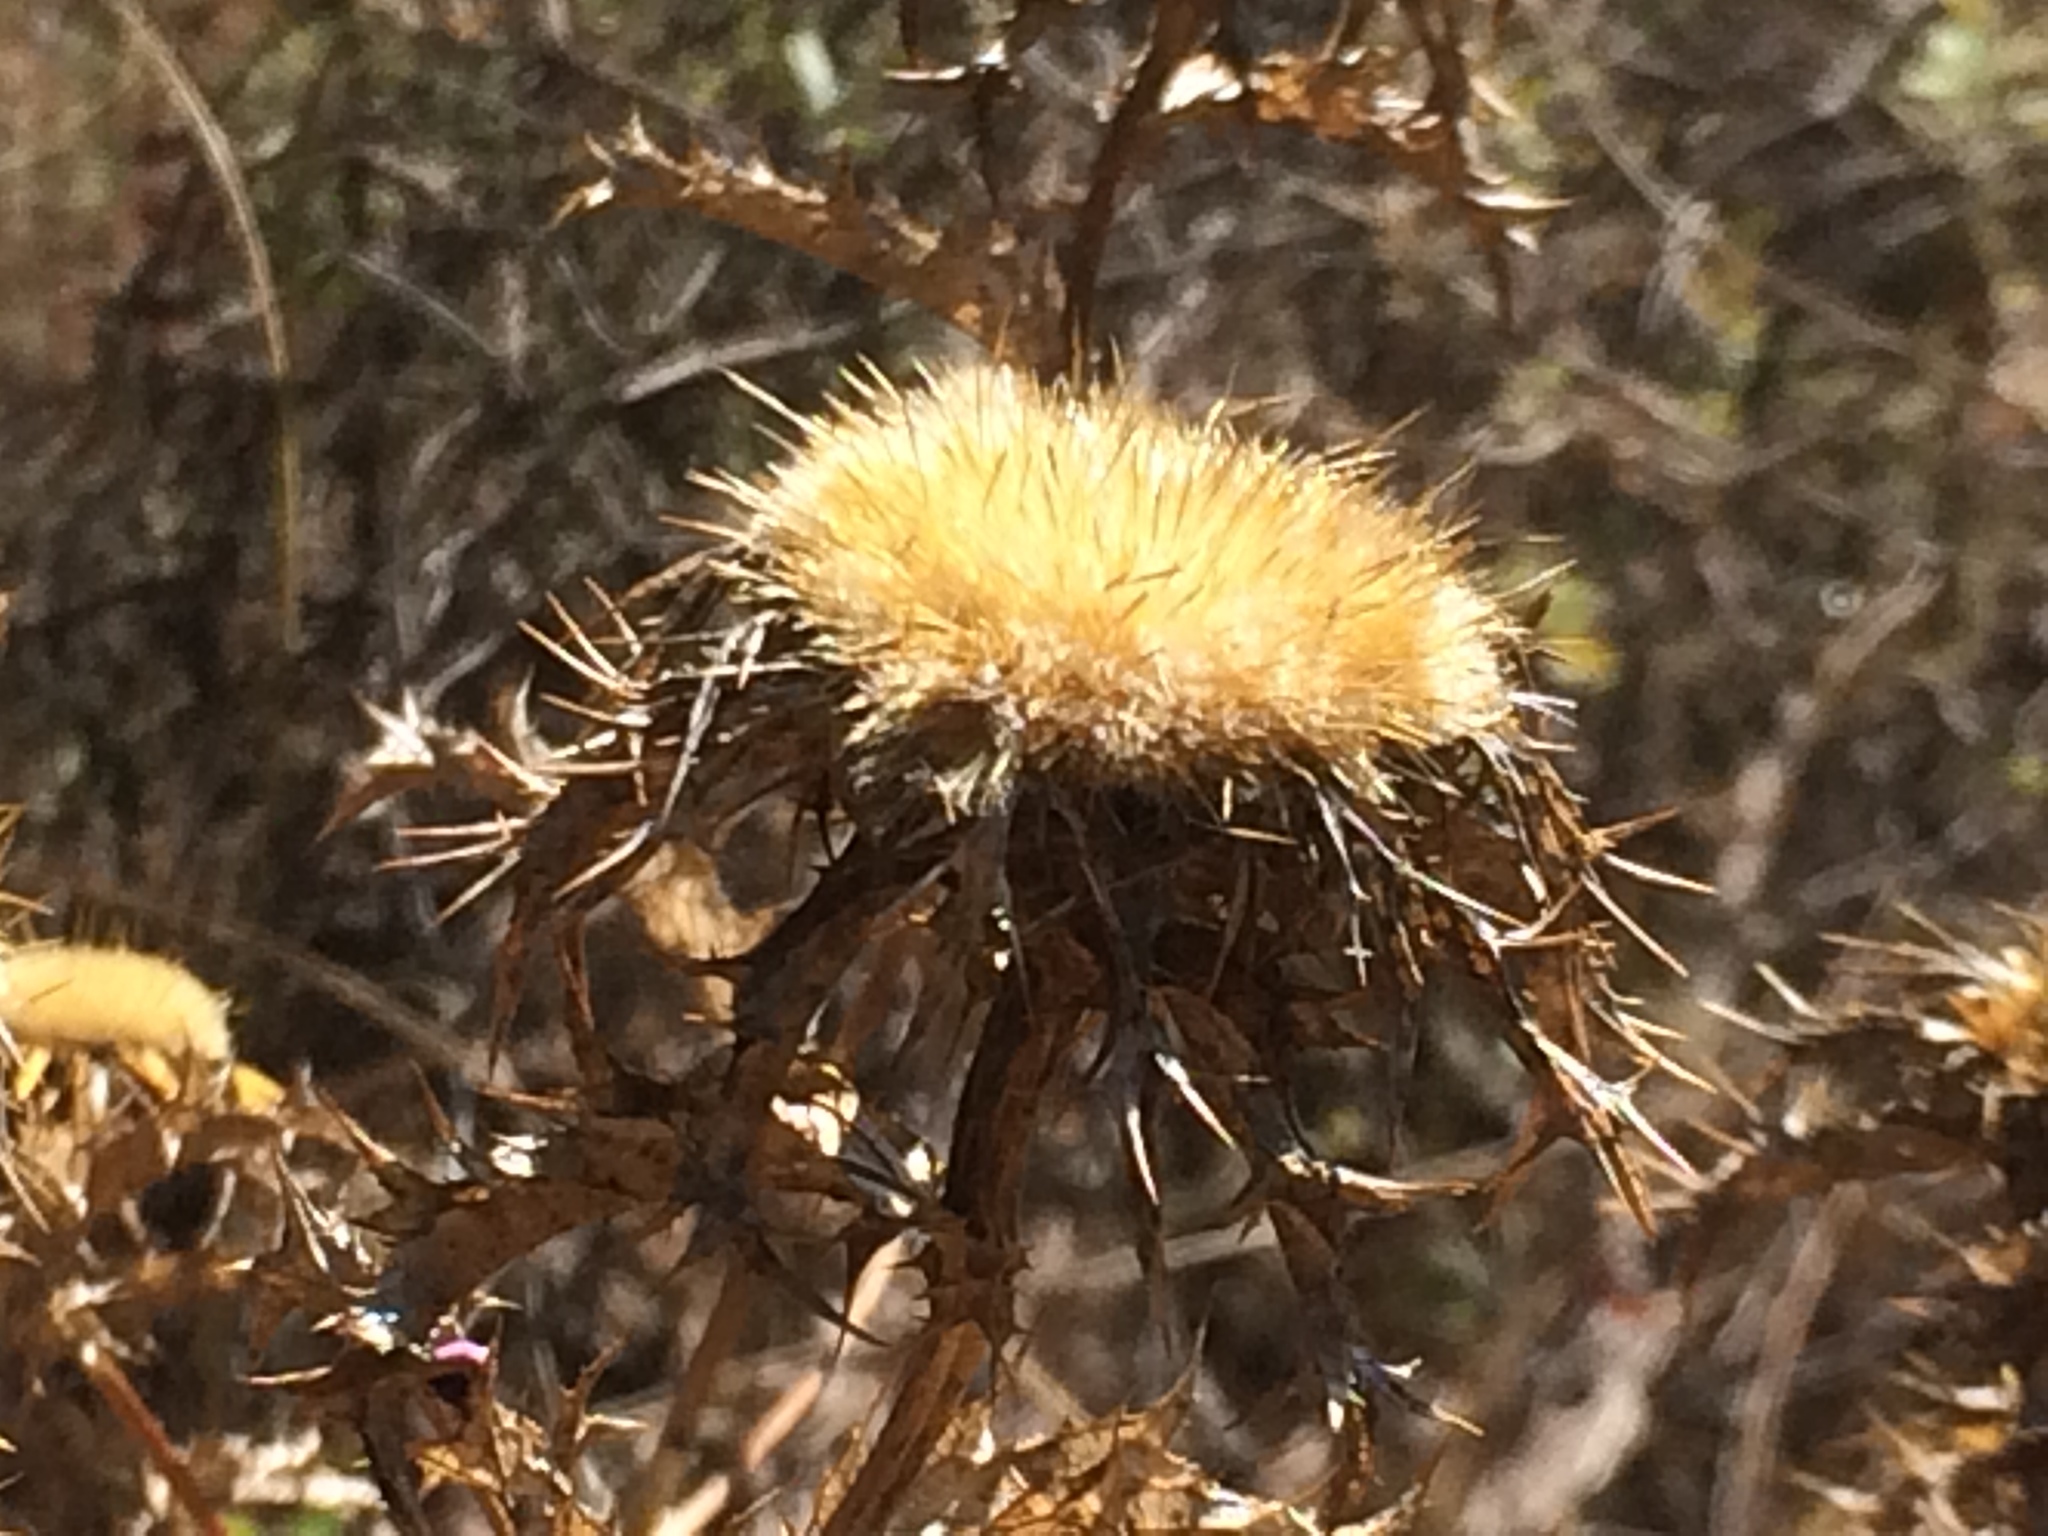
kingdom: Plantae
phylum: Tracheophyta
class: Magnoliopsida
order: Asterales
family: Asteraceae
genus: Carlina
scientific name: Carlina hispanica
